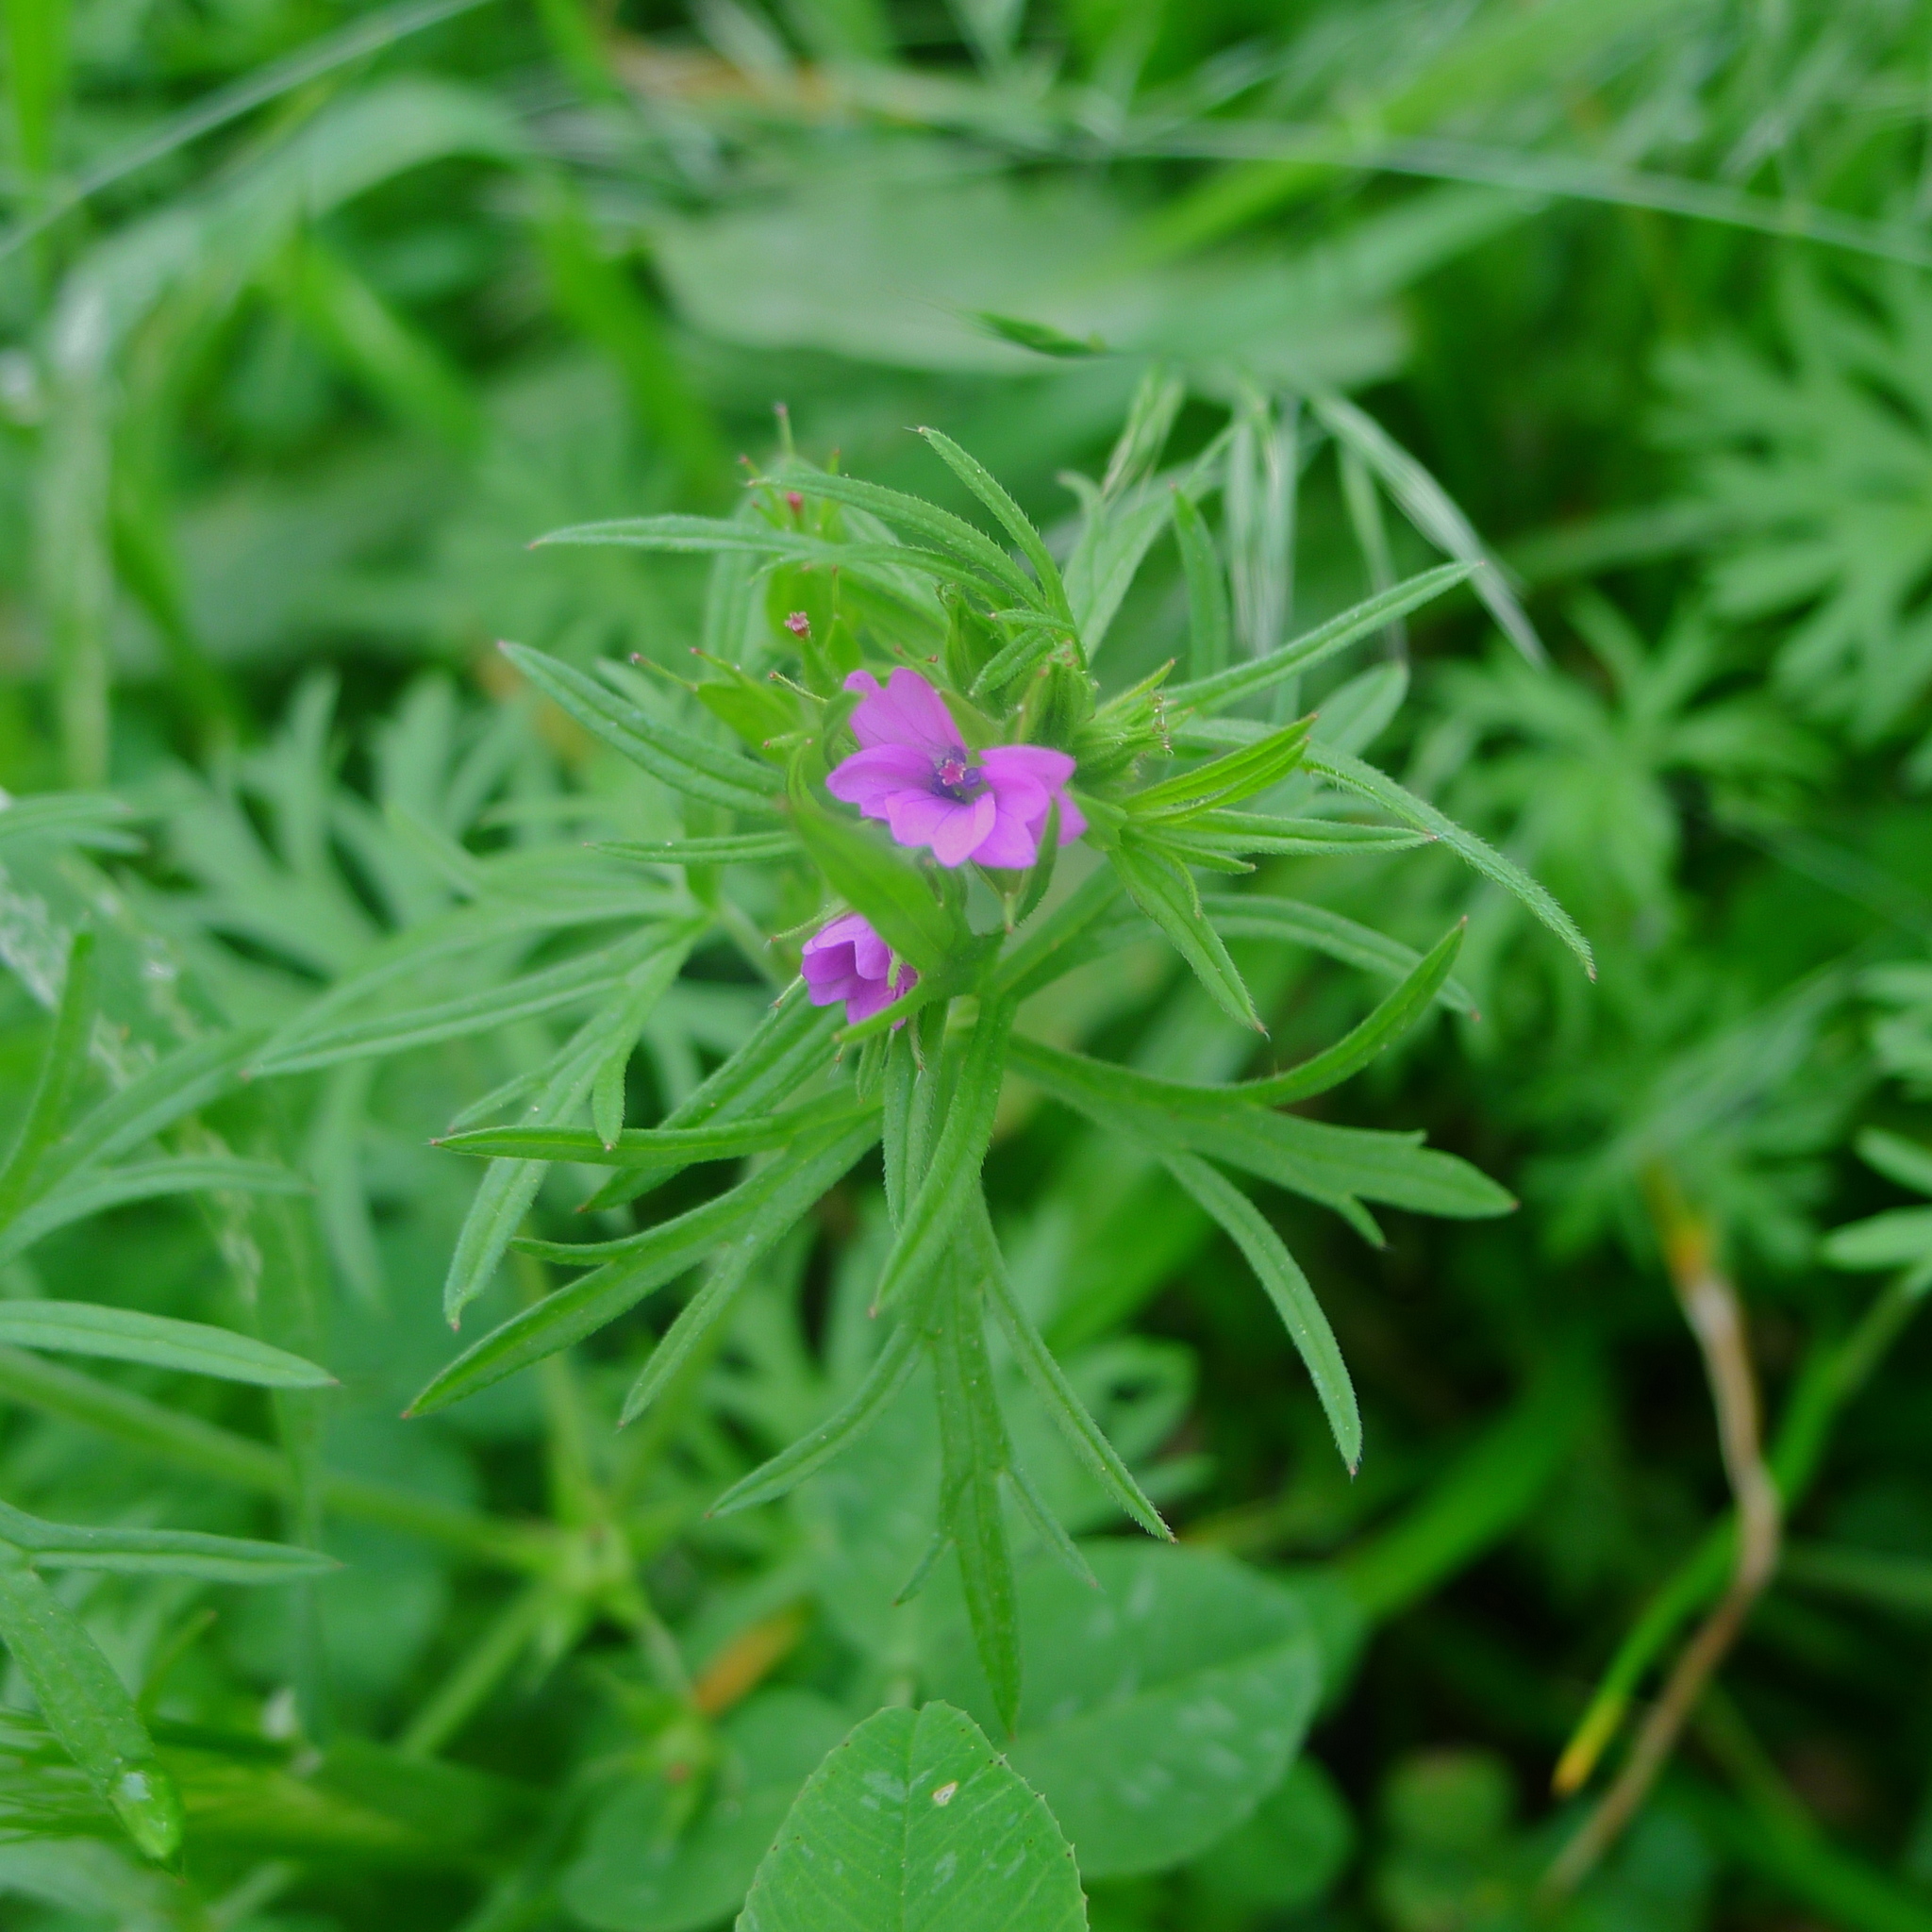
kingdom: Plantae
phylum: Tracheophyta
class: Magnoliopsida
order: Geraniales
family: Geraniaceae
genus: Geranium
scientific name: Geranium dissectum
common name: Cut-leaved crane's-bill
